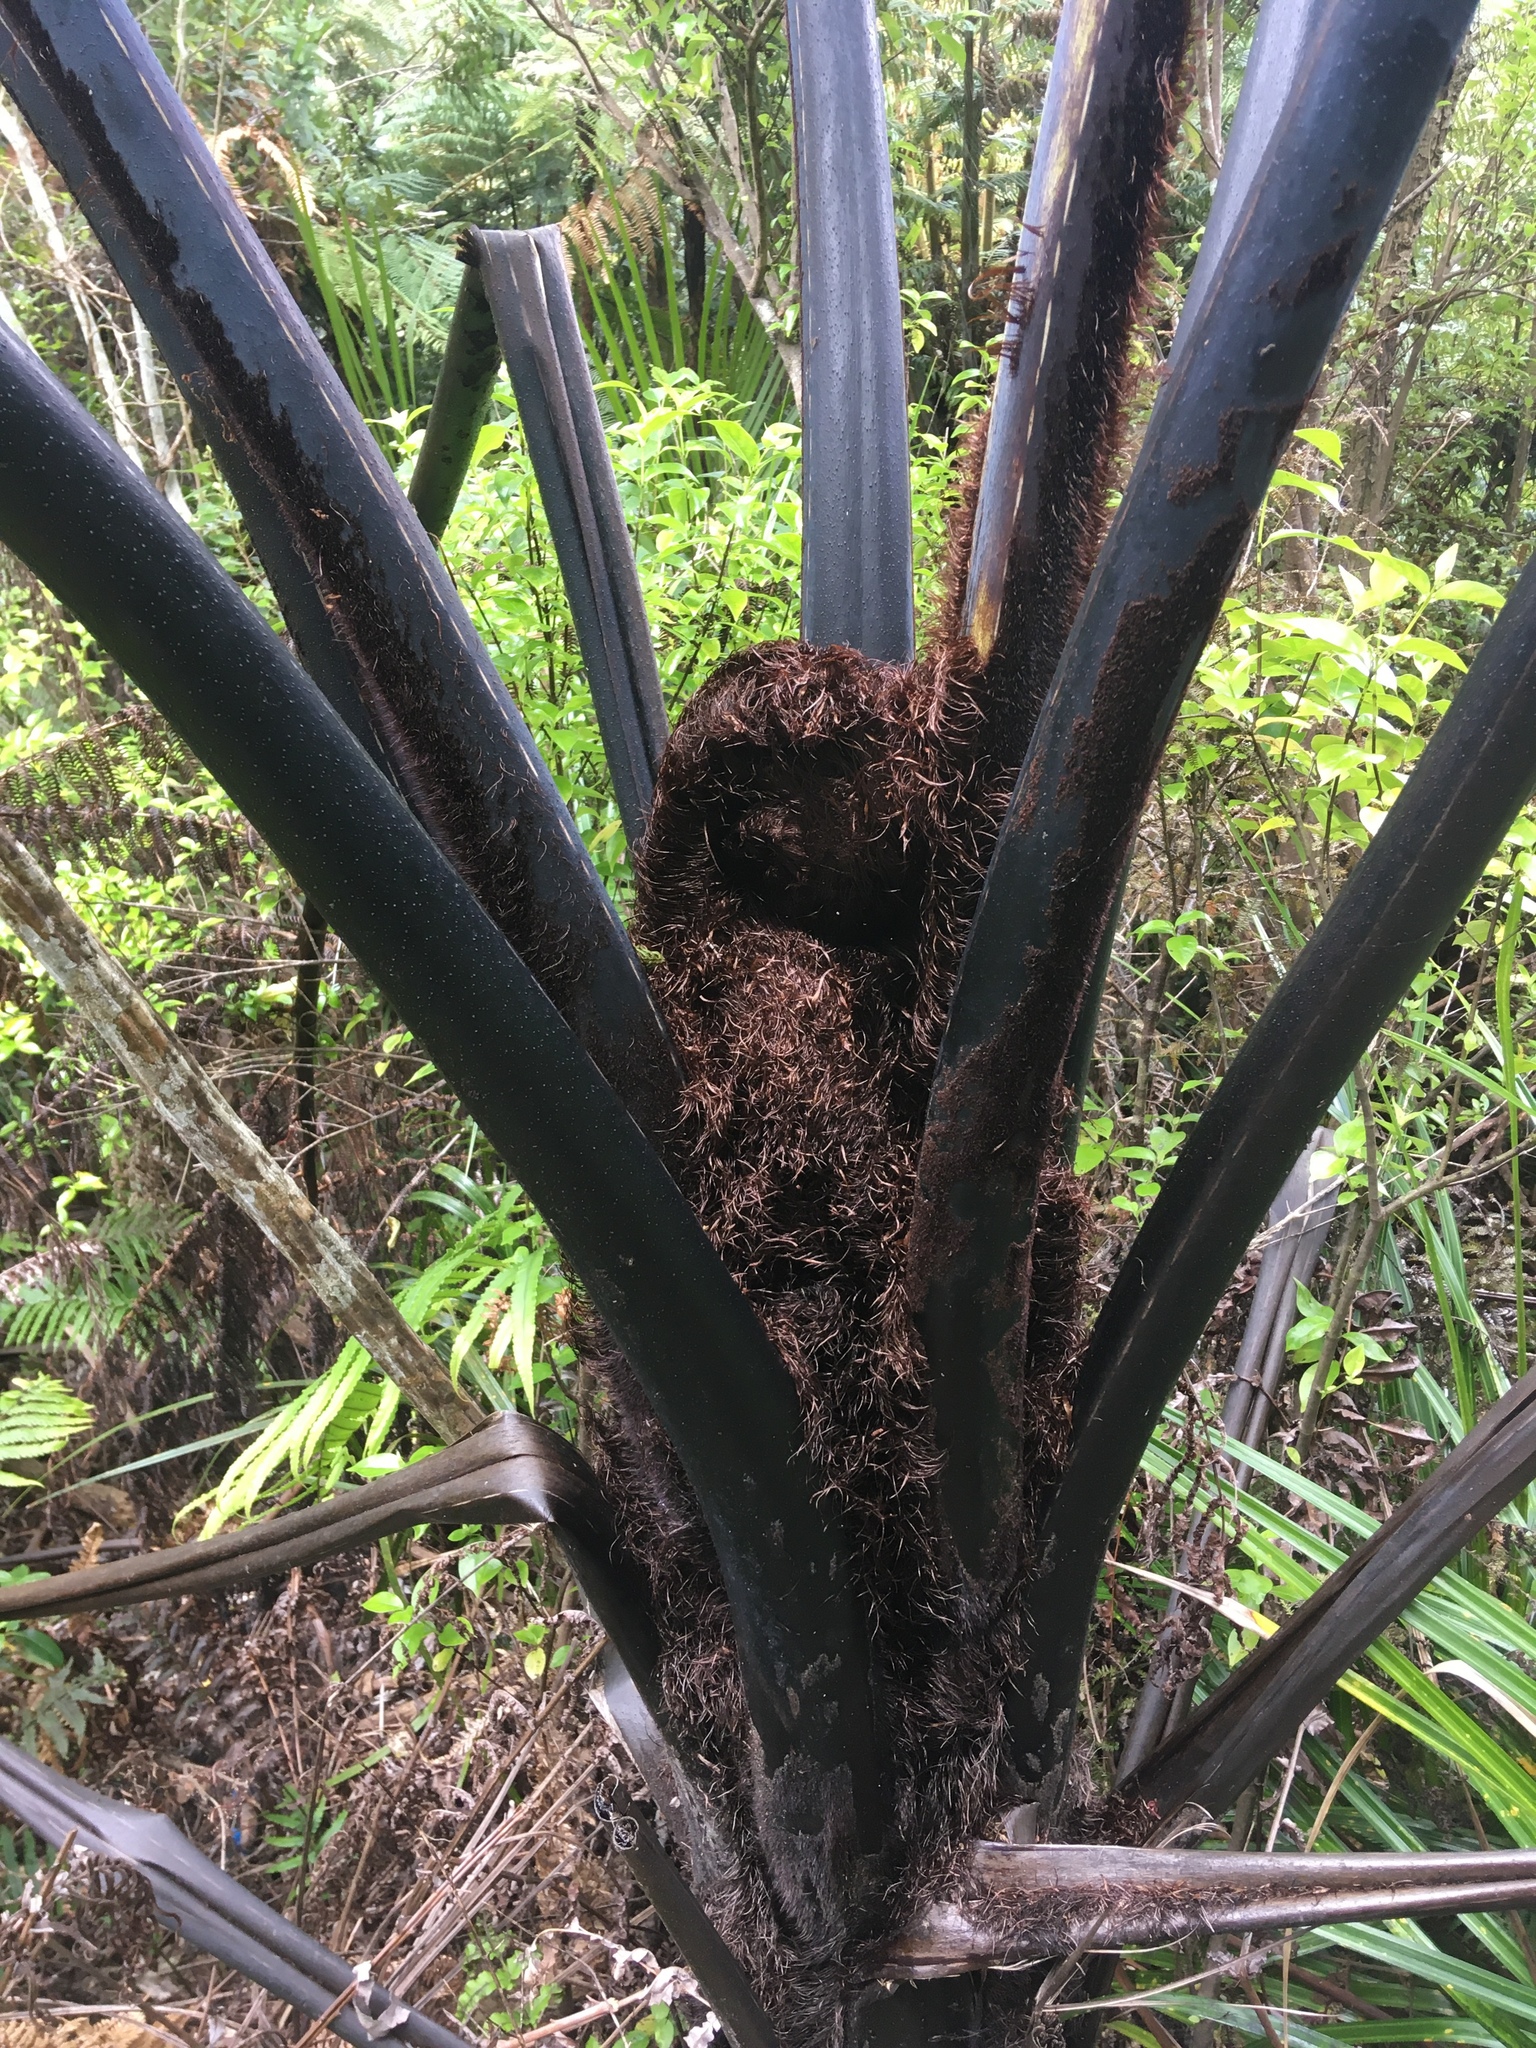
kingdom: Plantae
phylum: Tracheophyta
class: Polypodiopsida
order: Cyatheales
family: Cyatheaceae
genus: Sphaeropteris
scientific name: Sphaeropteris medullaris
